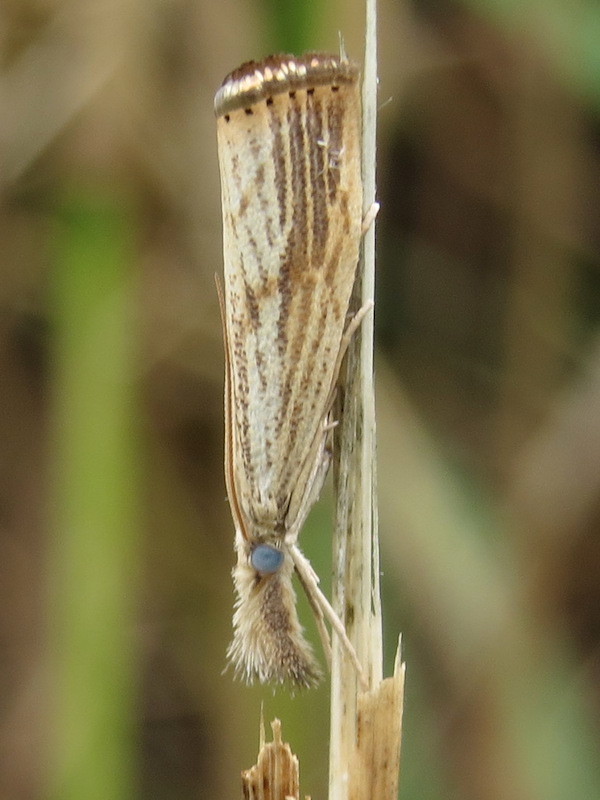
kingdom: Animalia
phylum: Arthropoda
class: Insecta
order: Lepidoptera
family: Crambidae
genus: Agriphila
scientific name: Agriphila ruricolellus
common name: Lesser vagabond sod webworm
